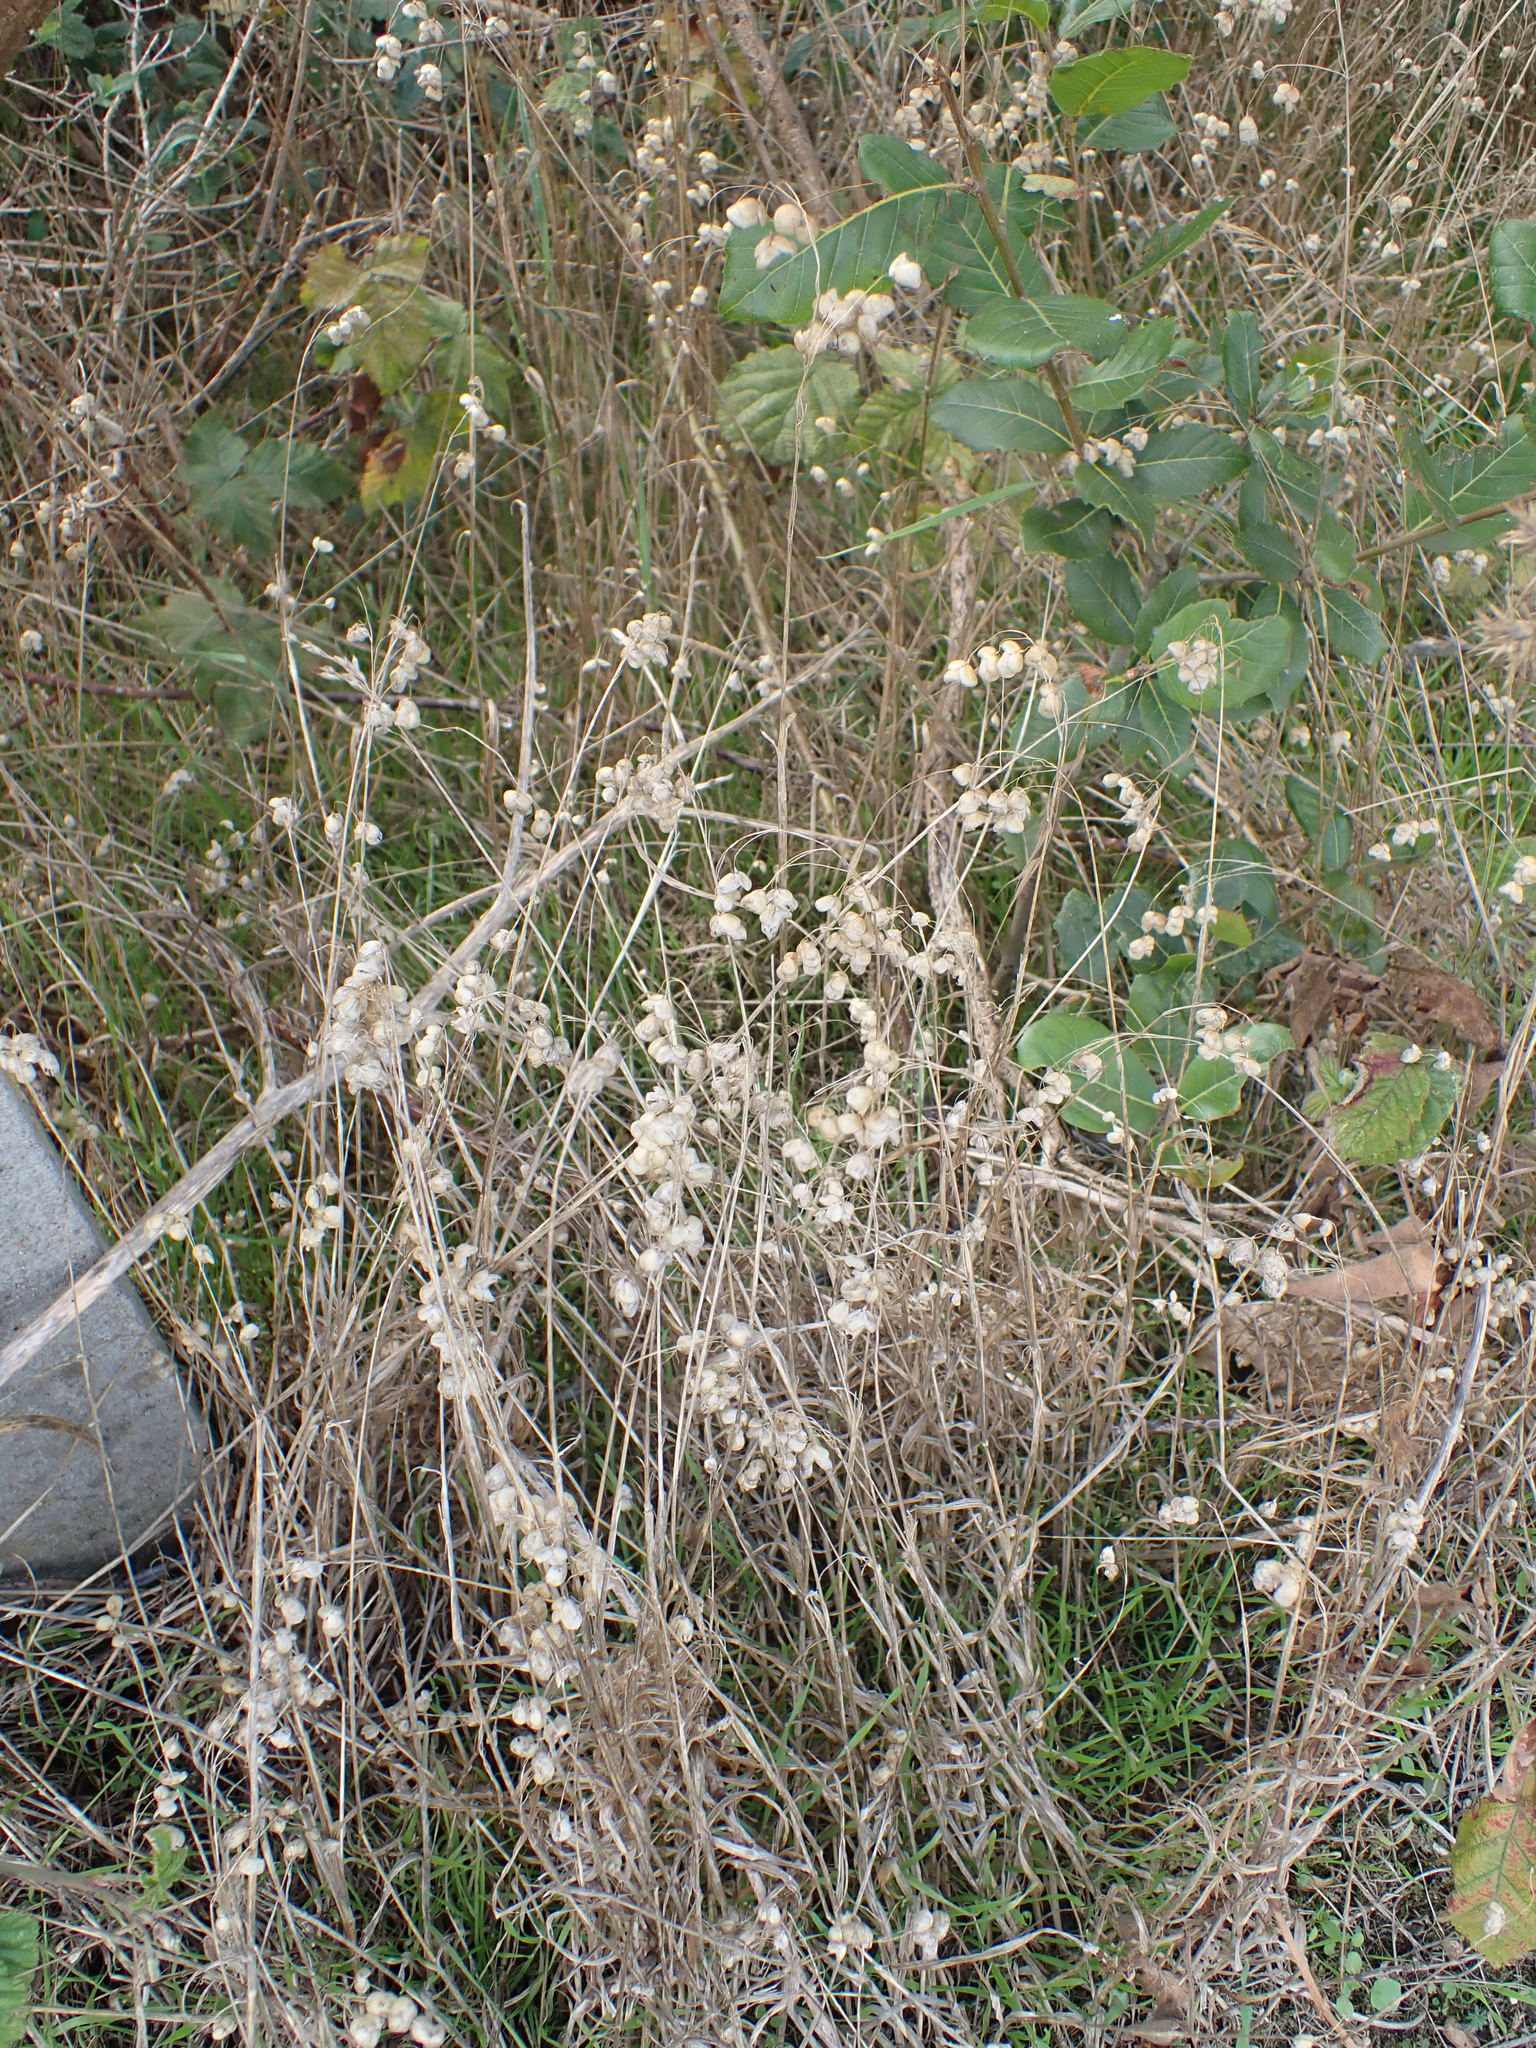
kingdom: Plantae
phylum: Tracheophyta
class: Liliopsida
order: Poales
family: Poaceae
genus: Briza
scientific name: Briza maxima
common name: Big quakinggrass
